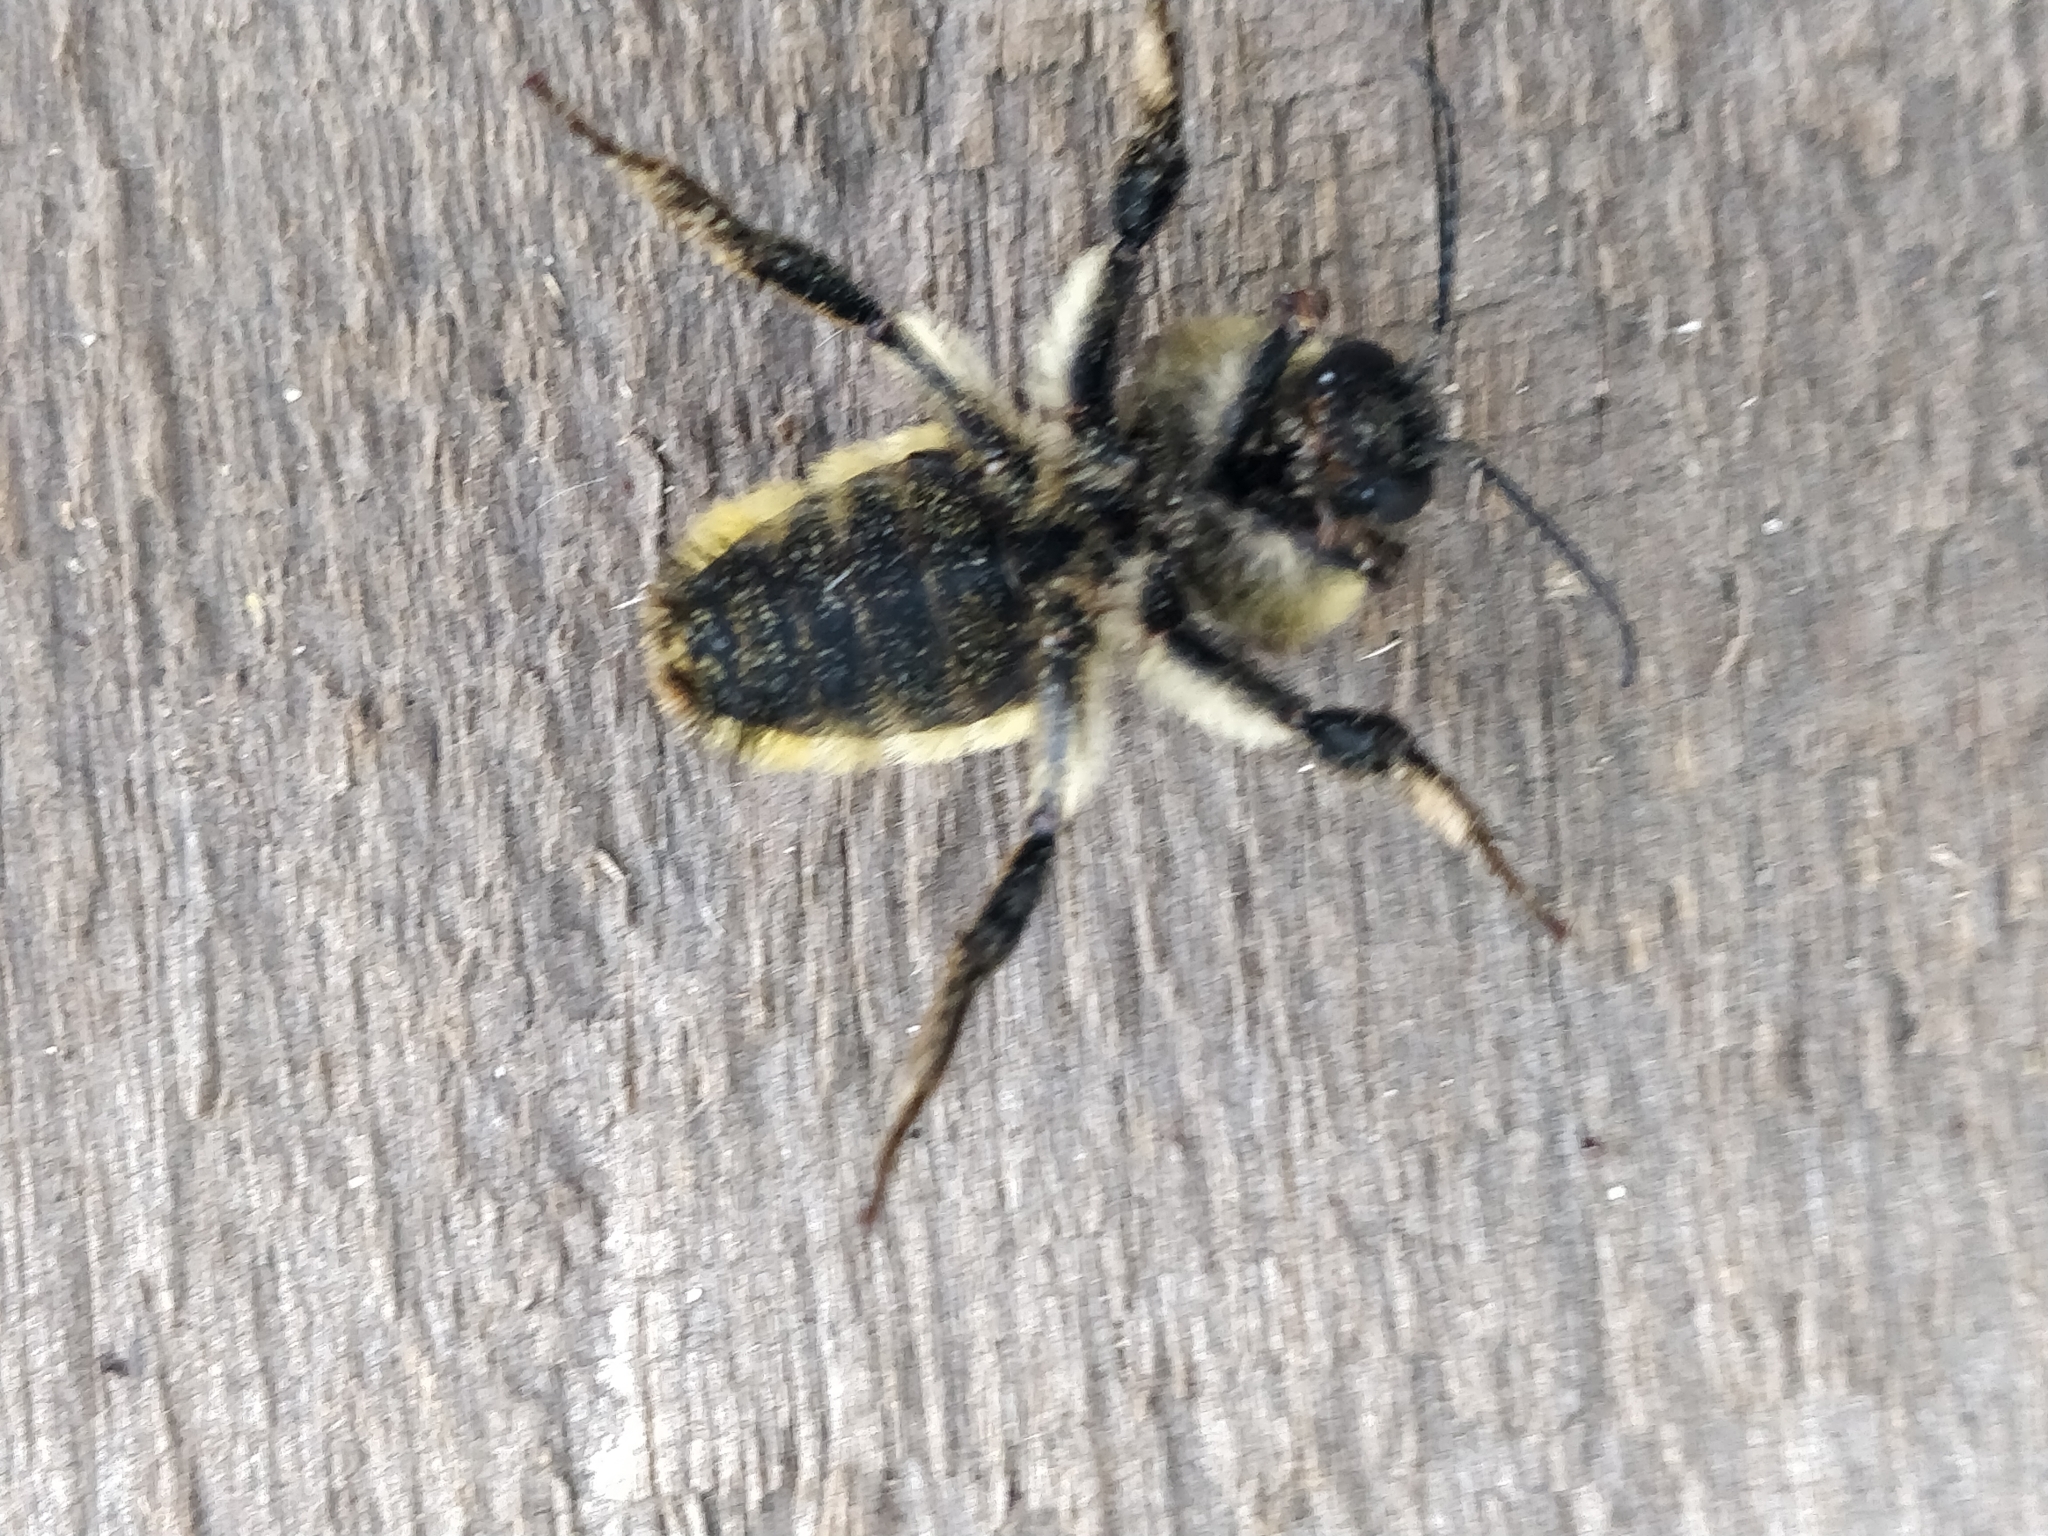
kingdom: Animalia
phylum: Arthropoda
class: Insecta
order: Hymenoptera
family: Apidae
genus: Bombus
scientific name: Bombus pensylvanicus
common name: Bumble bee
